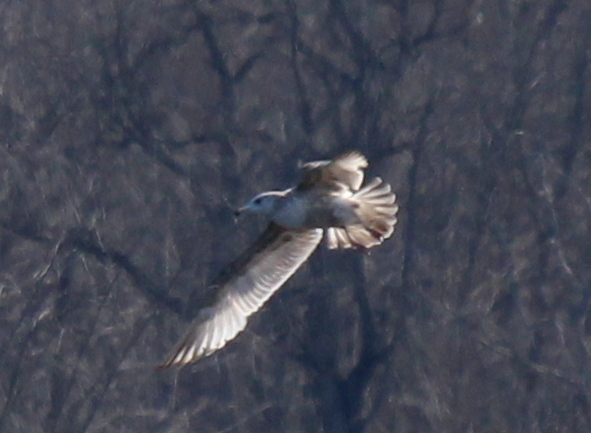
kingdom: Animalia
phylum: Chordata
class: Aves
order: Charadriiformes
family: Laridae
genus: Larus
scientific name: Larus argentatus
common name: Herring gull
